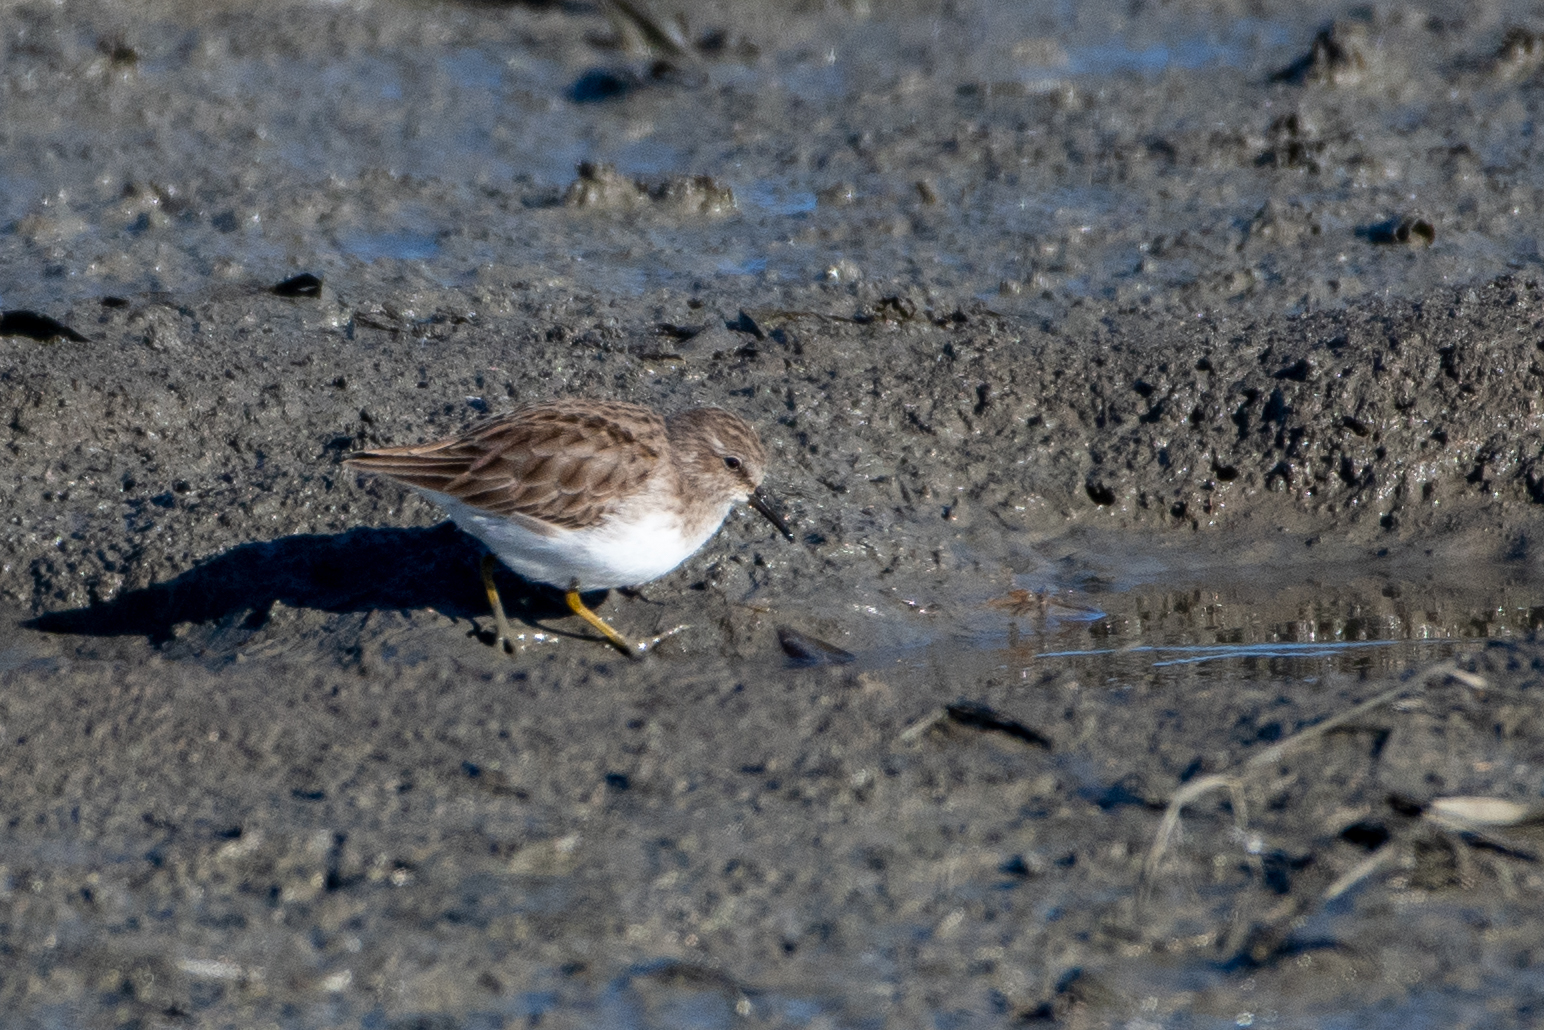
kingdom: Animalia
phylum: Chordata
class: Aves
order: Charadriiformes
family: Scolopacidae
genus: Calidris
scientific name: Calidris minutilla
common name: Least sandpiper
